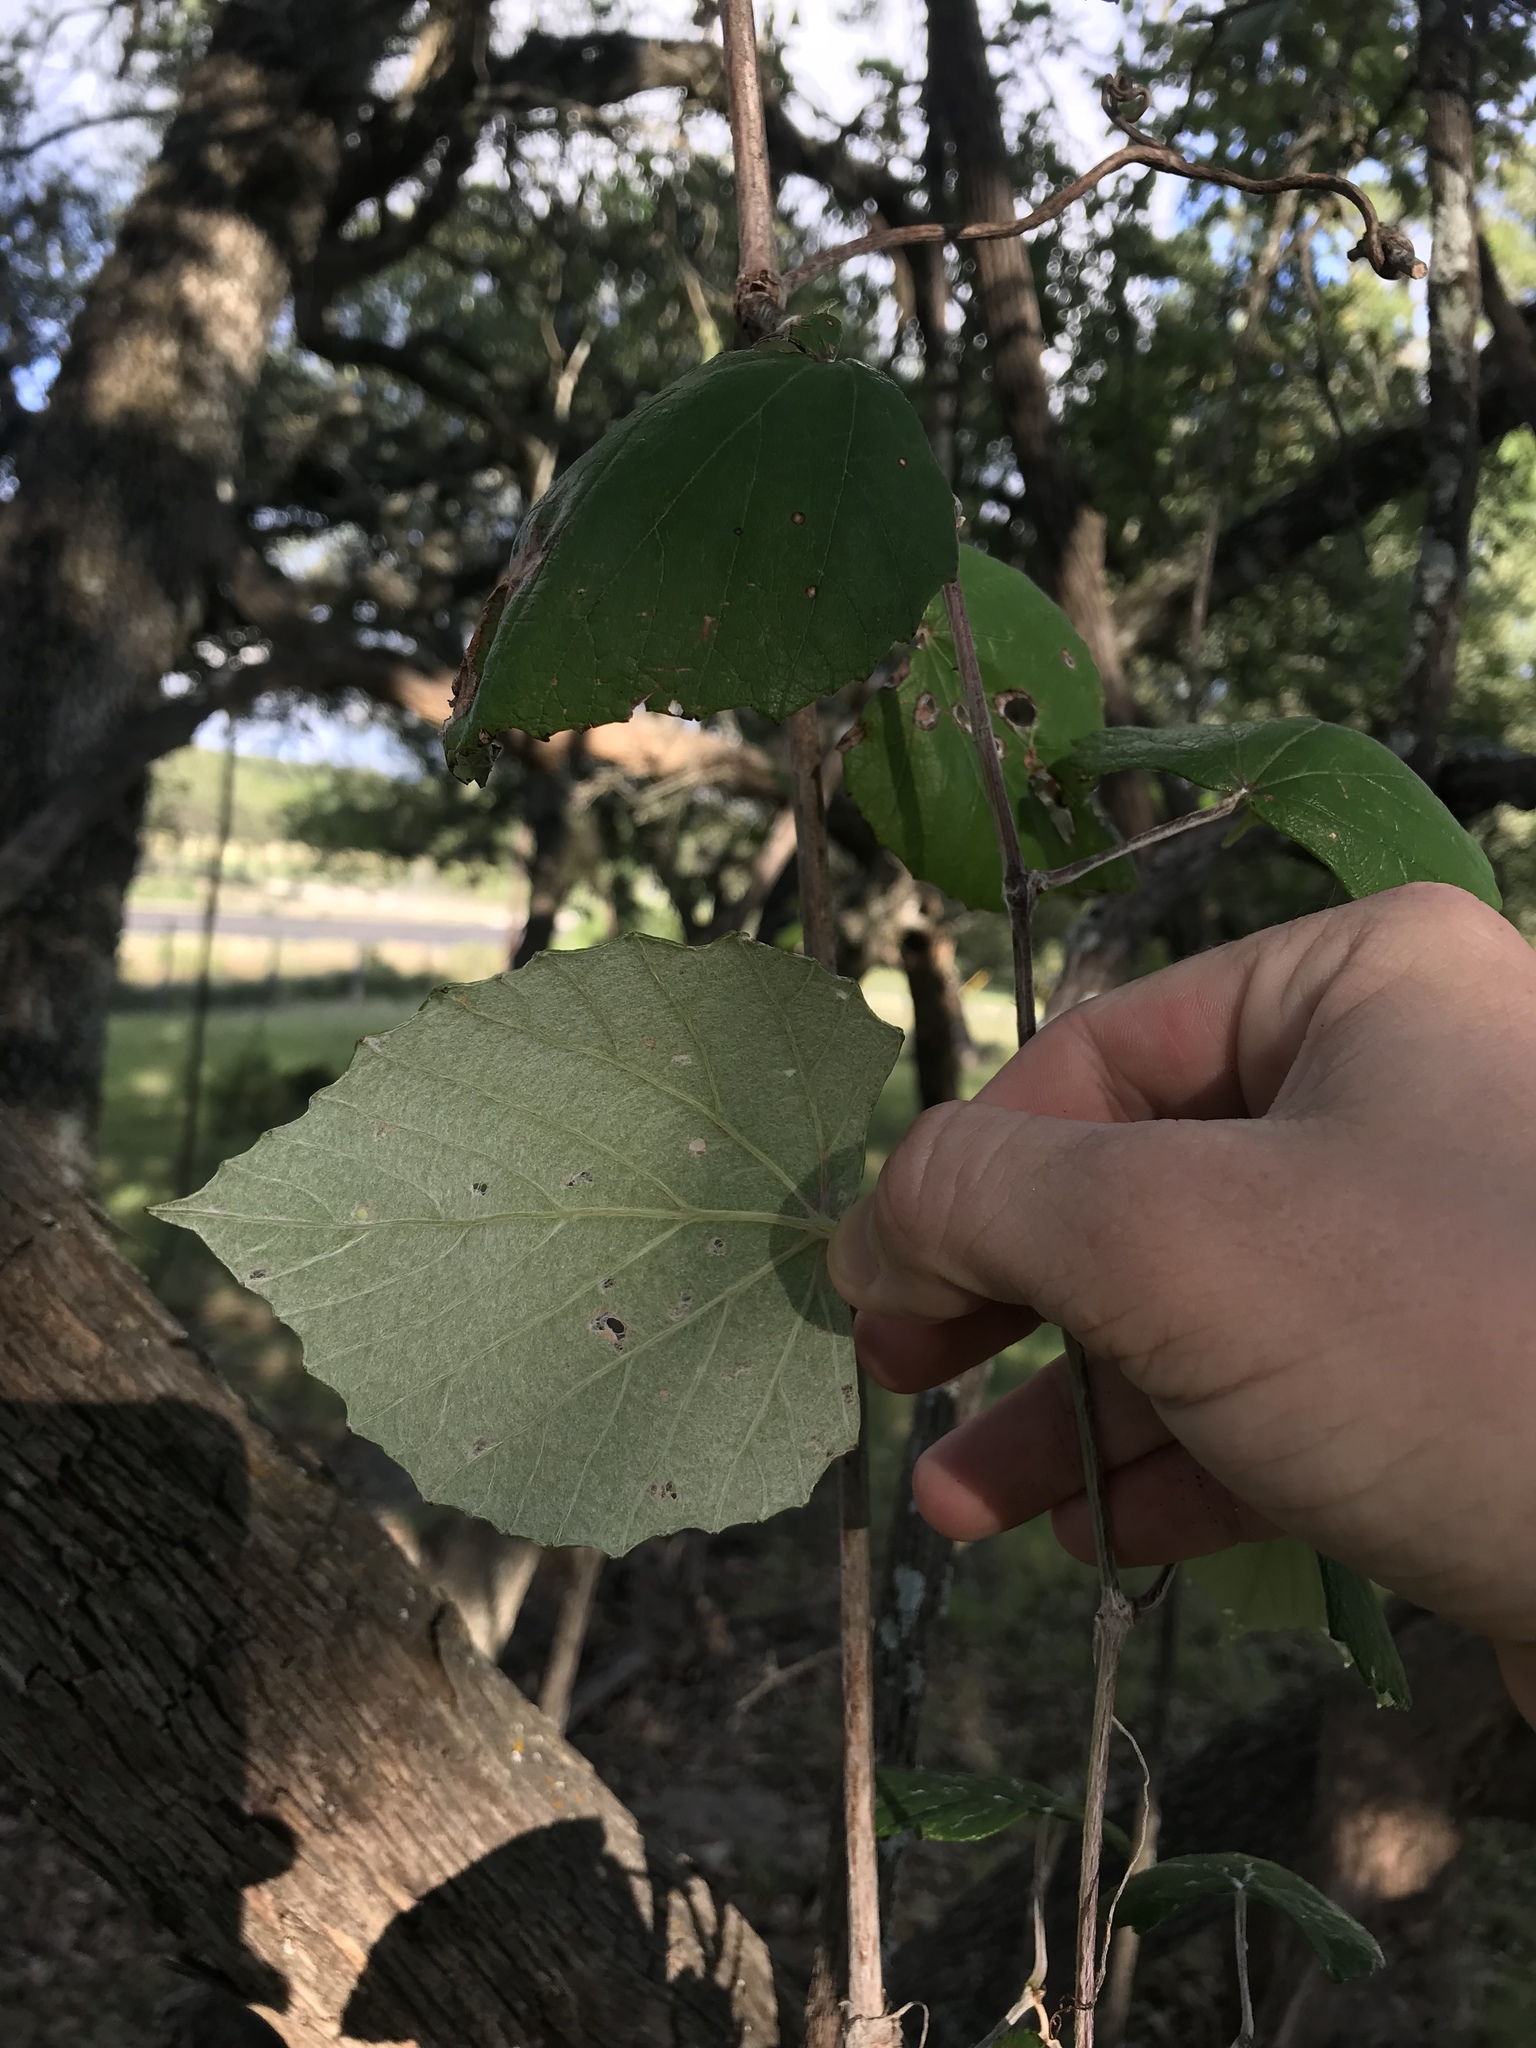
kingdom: Plantae
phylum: Tracheophyta
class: Magnoliopsida
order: Vitales
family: Vitaceae
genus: Vitis
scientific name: Vitis mustangensis
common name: Mustang grape
